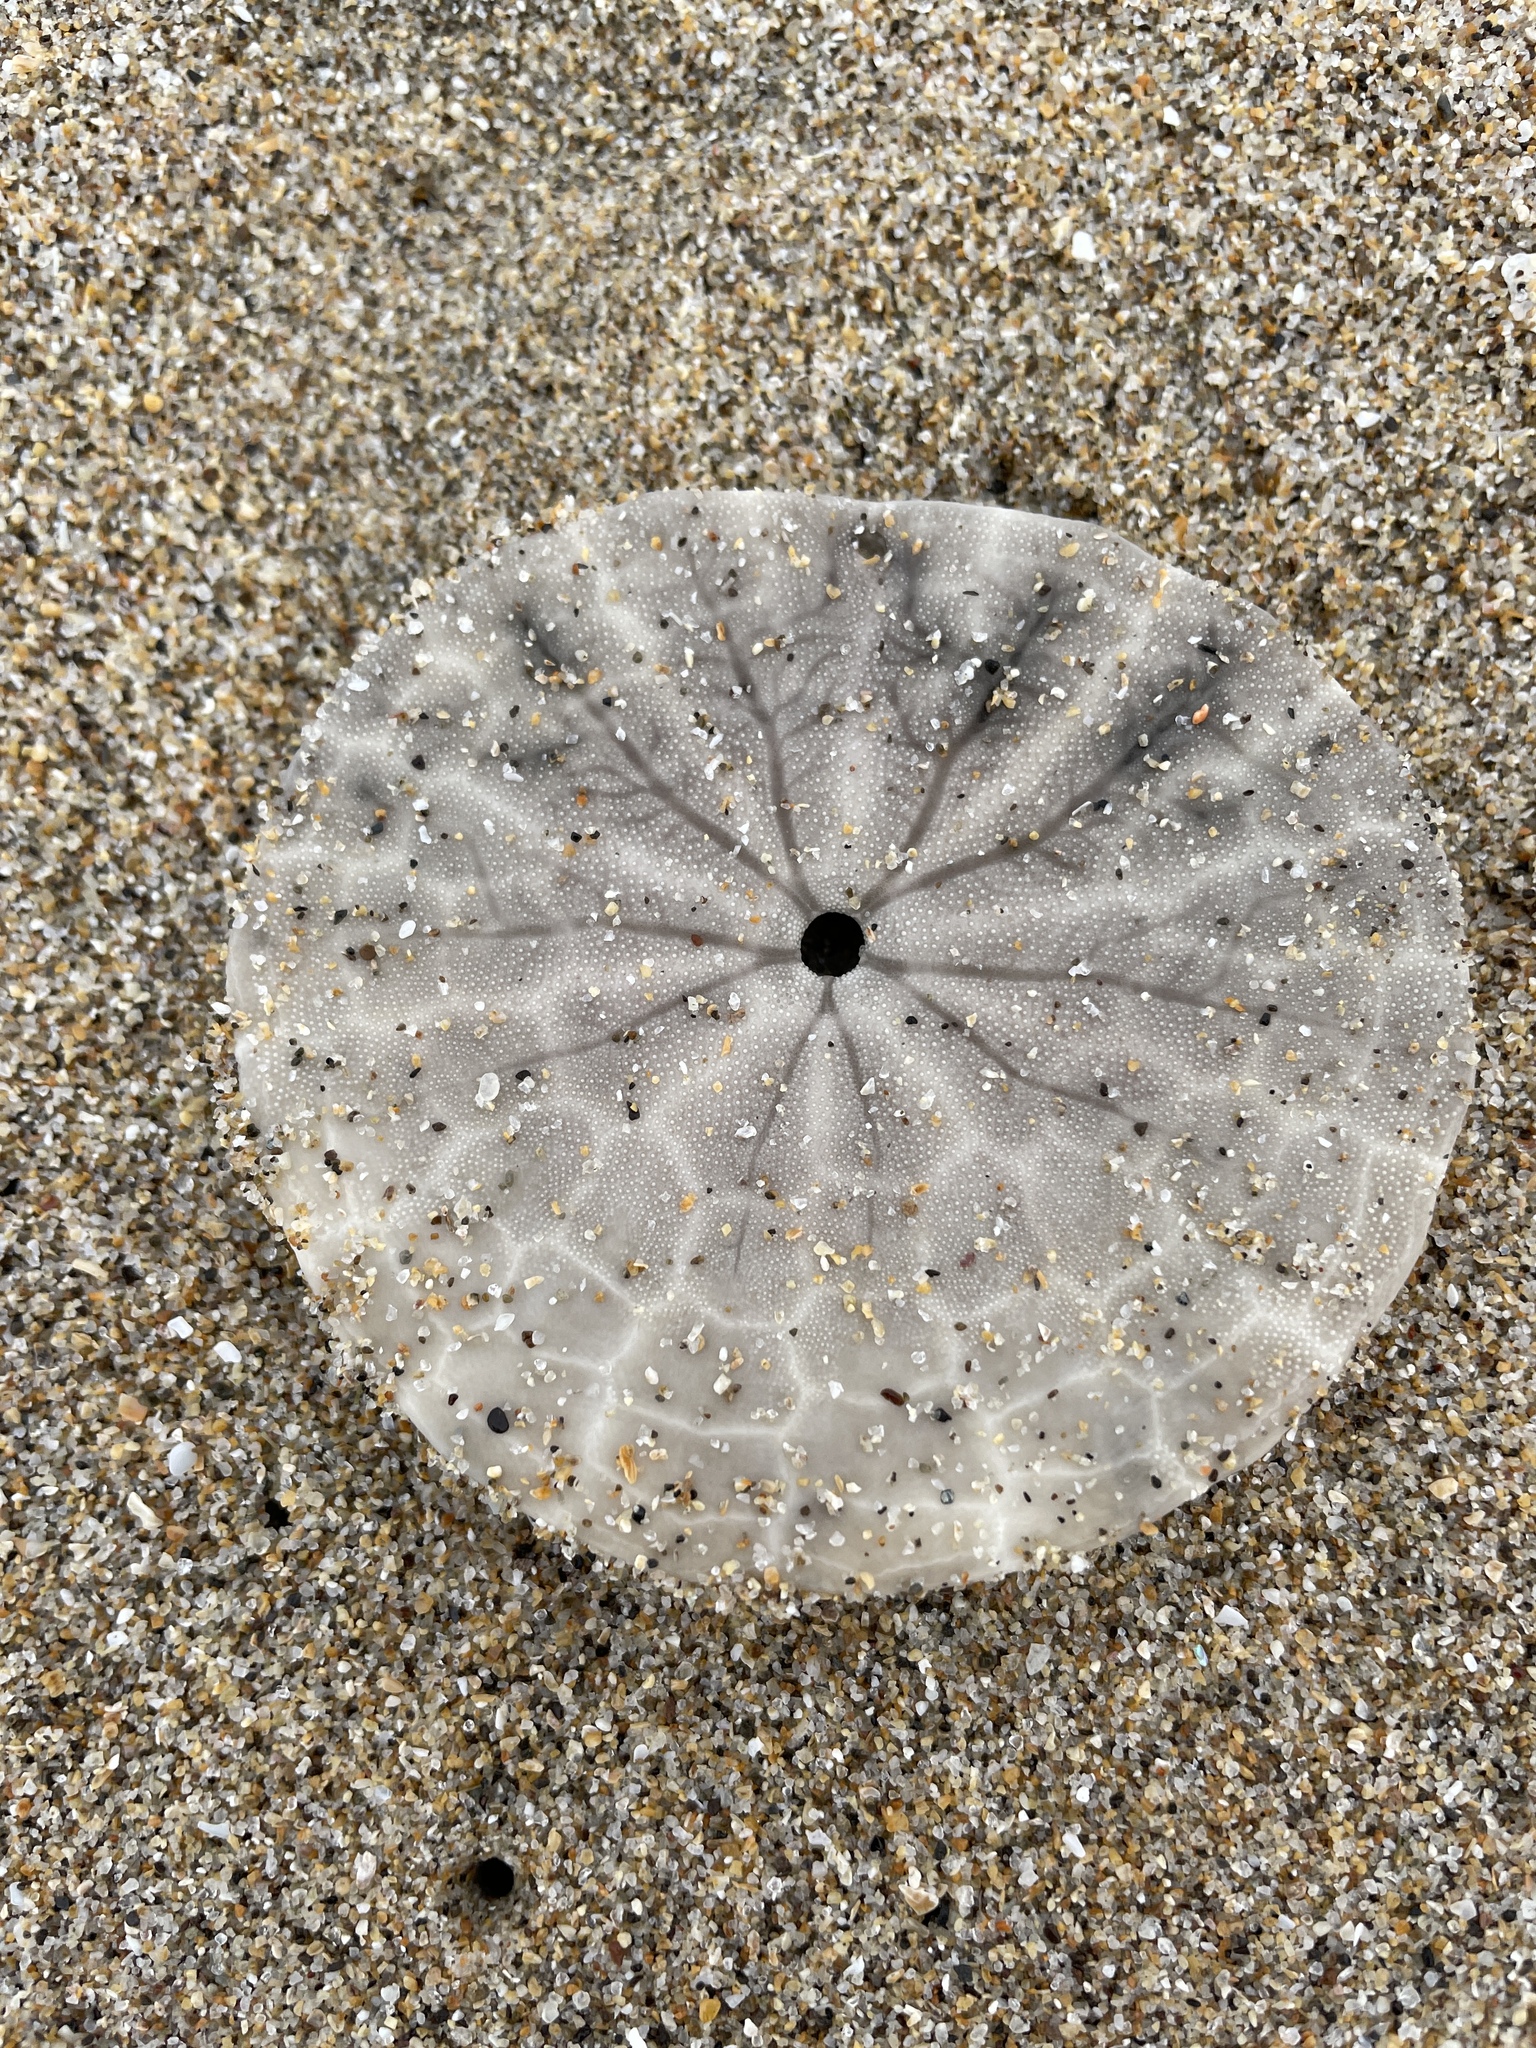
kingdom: Animalia
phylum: Echinodermata
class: Echinoidea
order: Echinolampadacea
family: Dendrasteridae
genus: Dendraster
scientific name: Dendraster excentricus
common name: Eccentric sand dollar sea urchin
